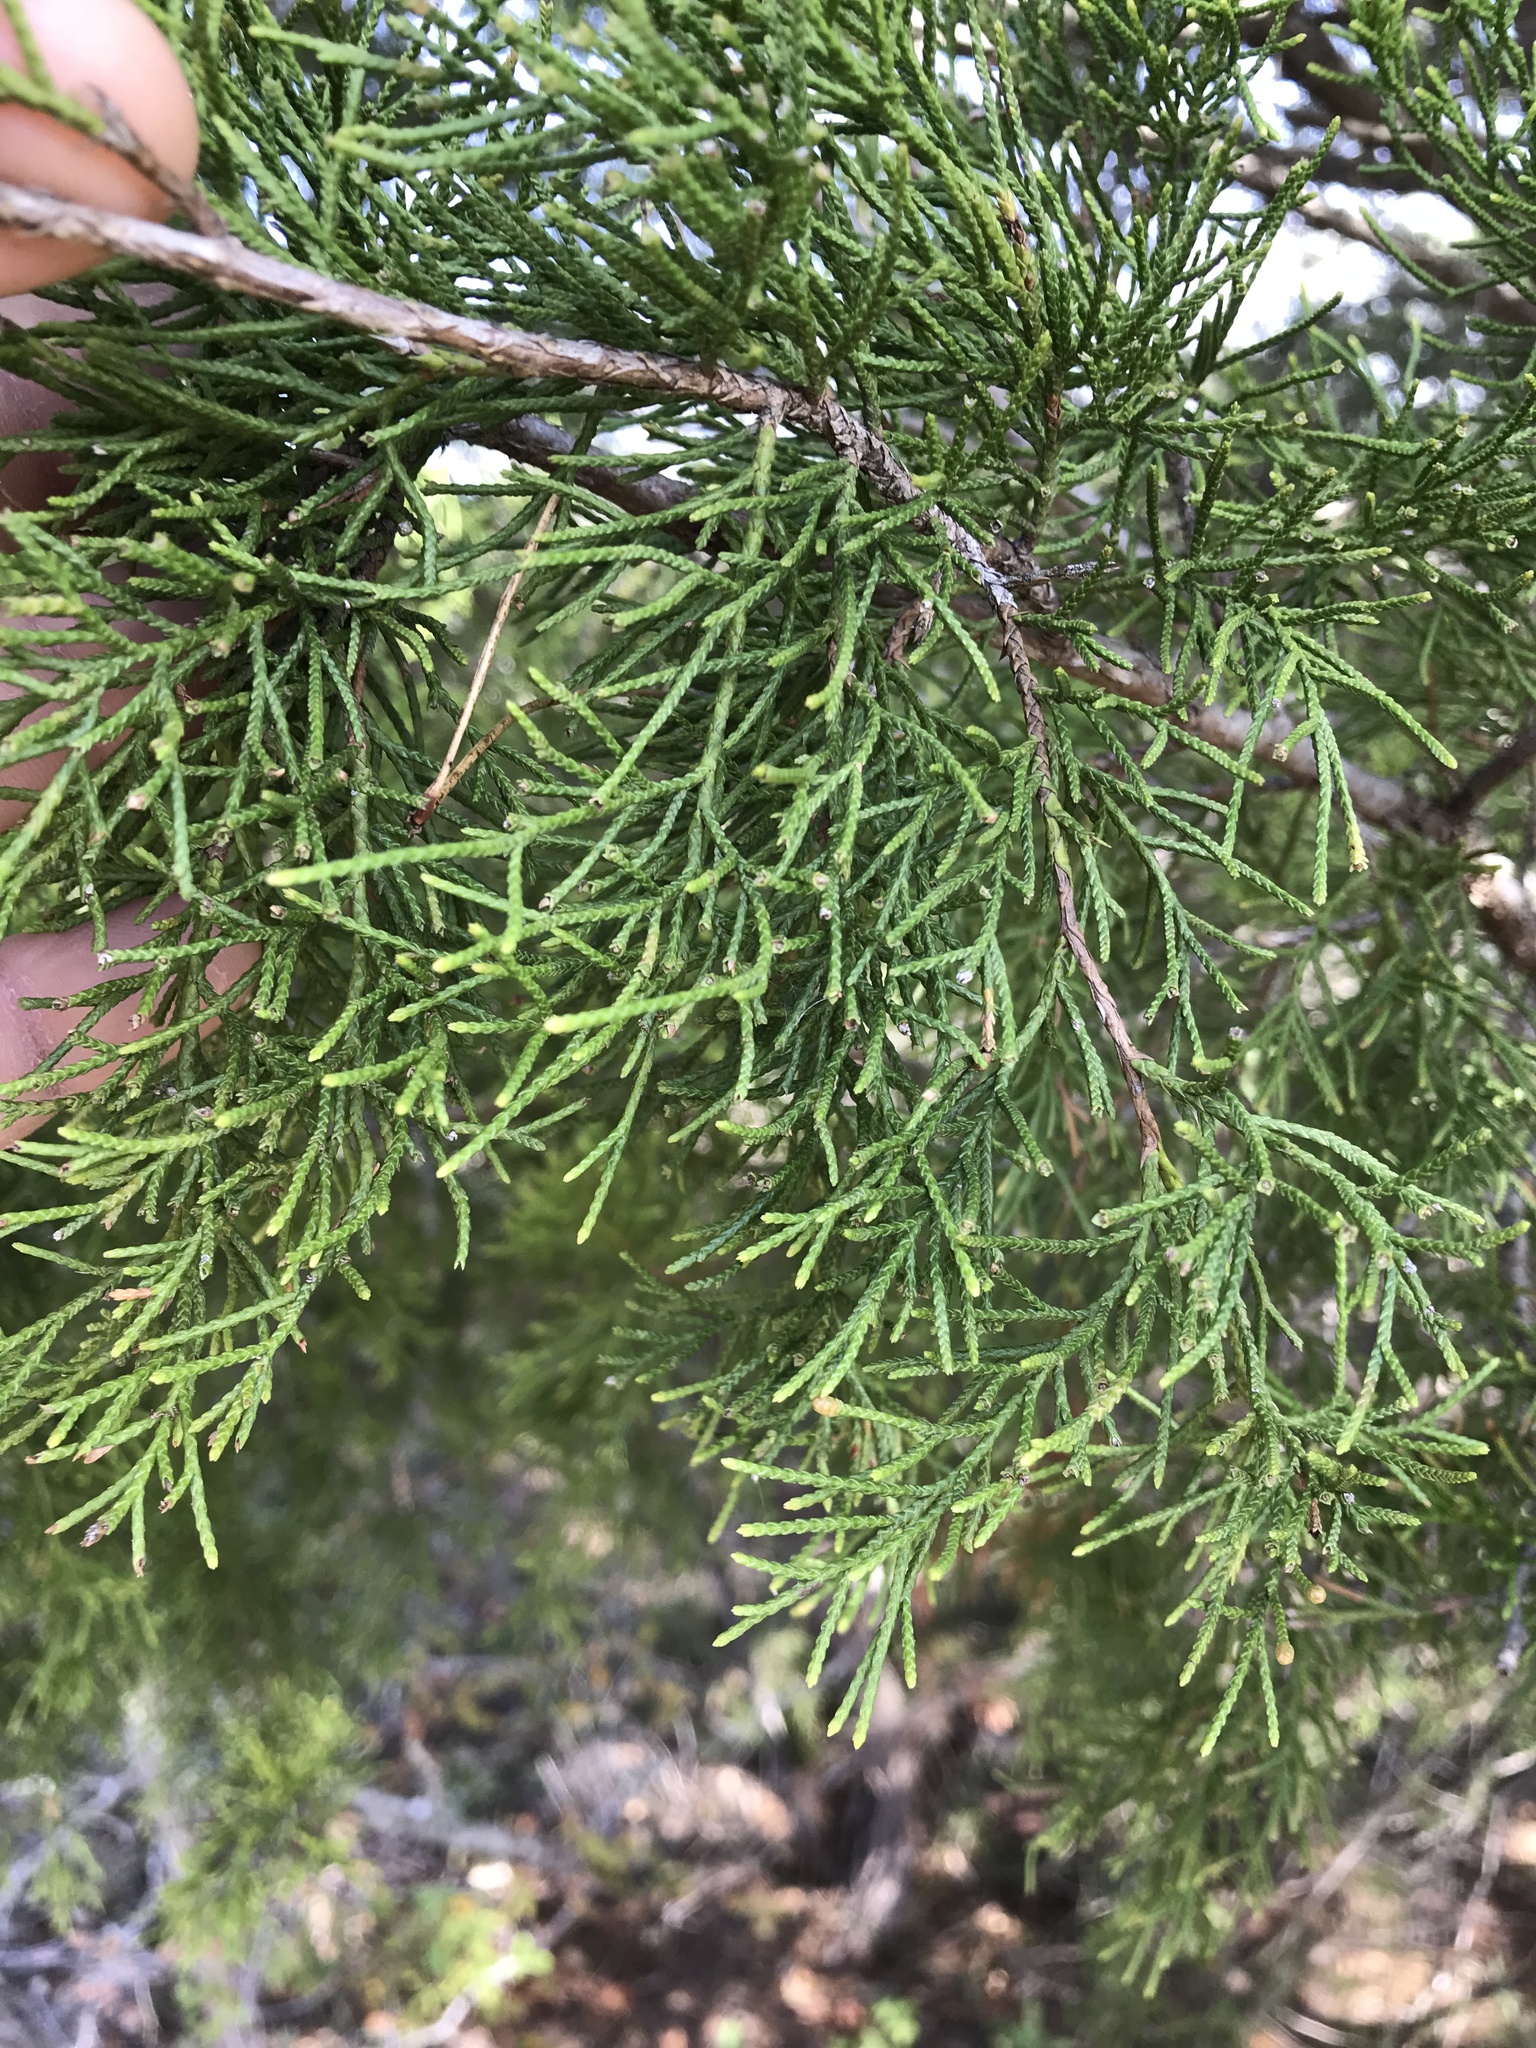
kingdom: Plantae
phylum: Tracheophyta
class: Pinopsida
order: Pinales
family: Cupressaceae
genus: Juniperus
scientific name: Juniperus virginiana
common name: Red juniper
